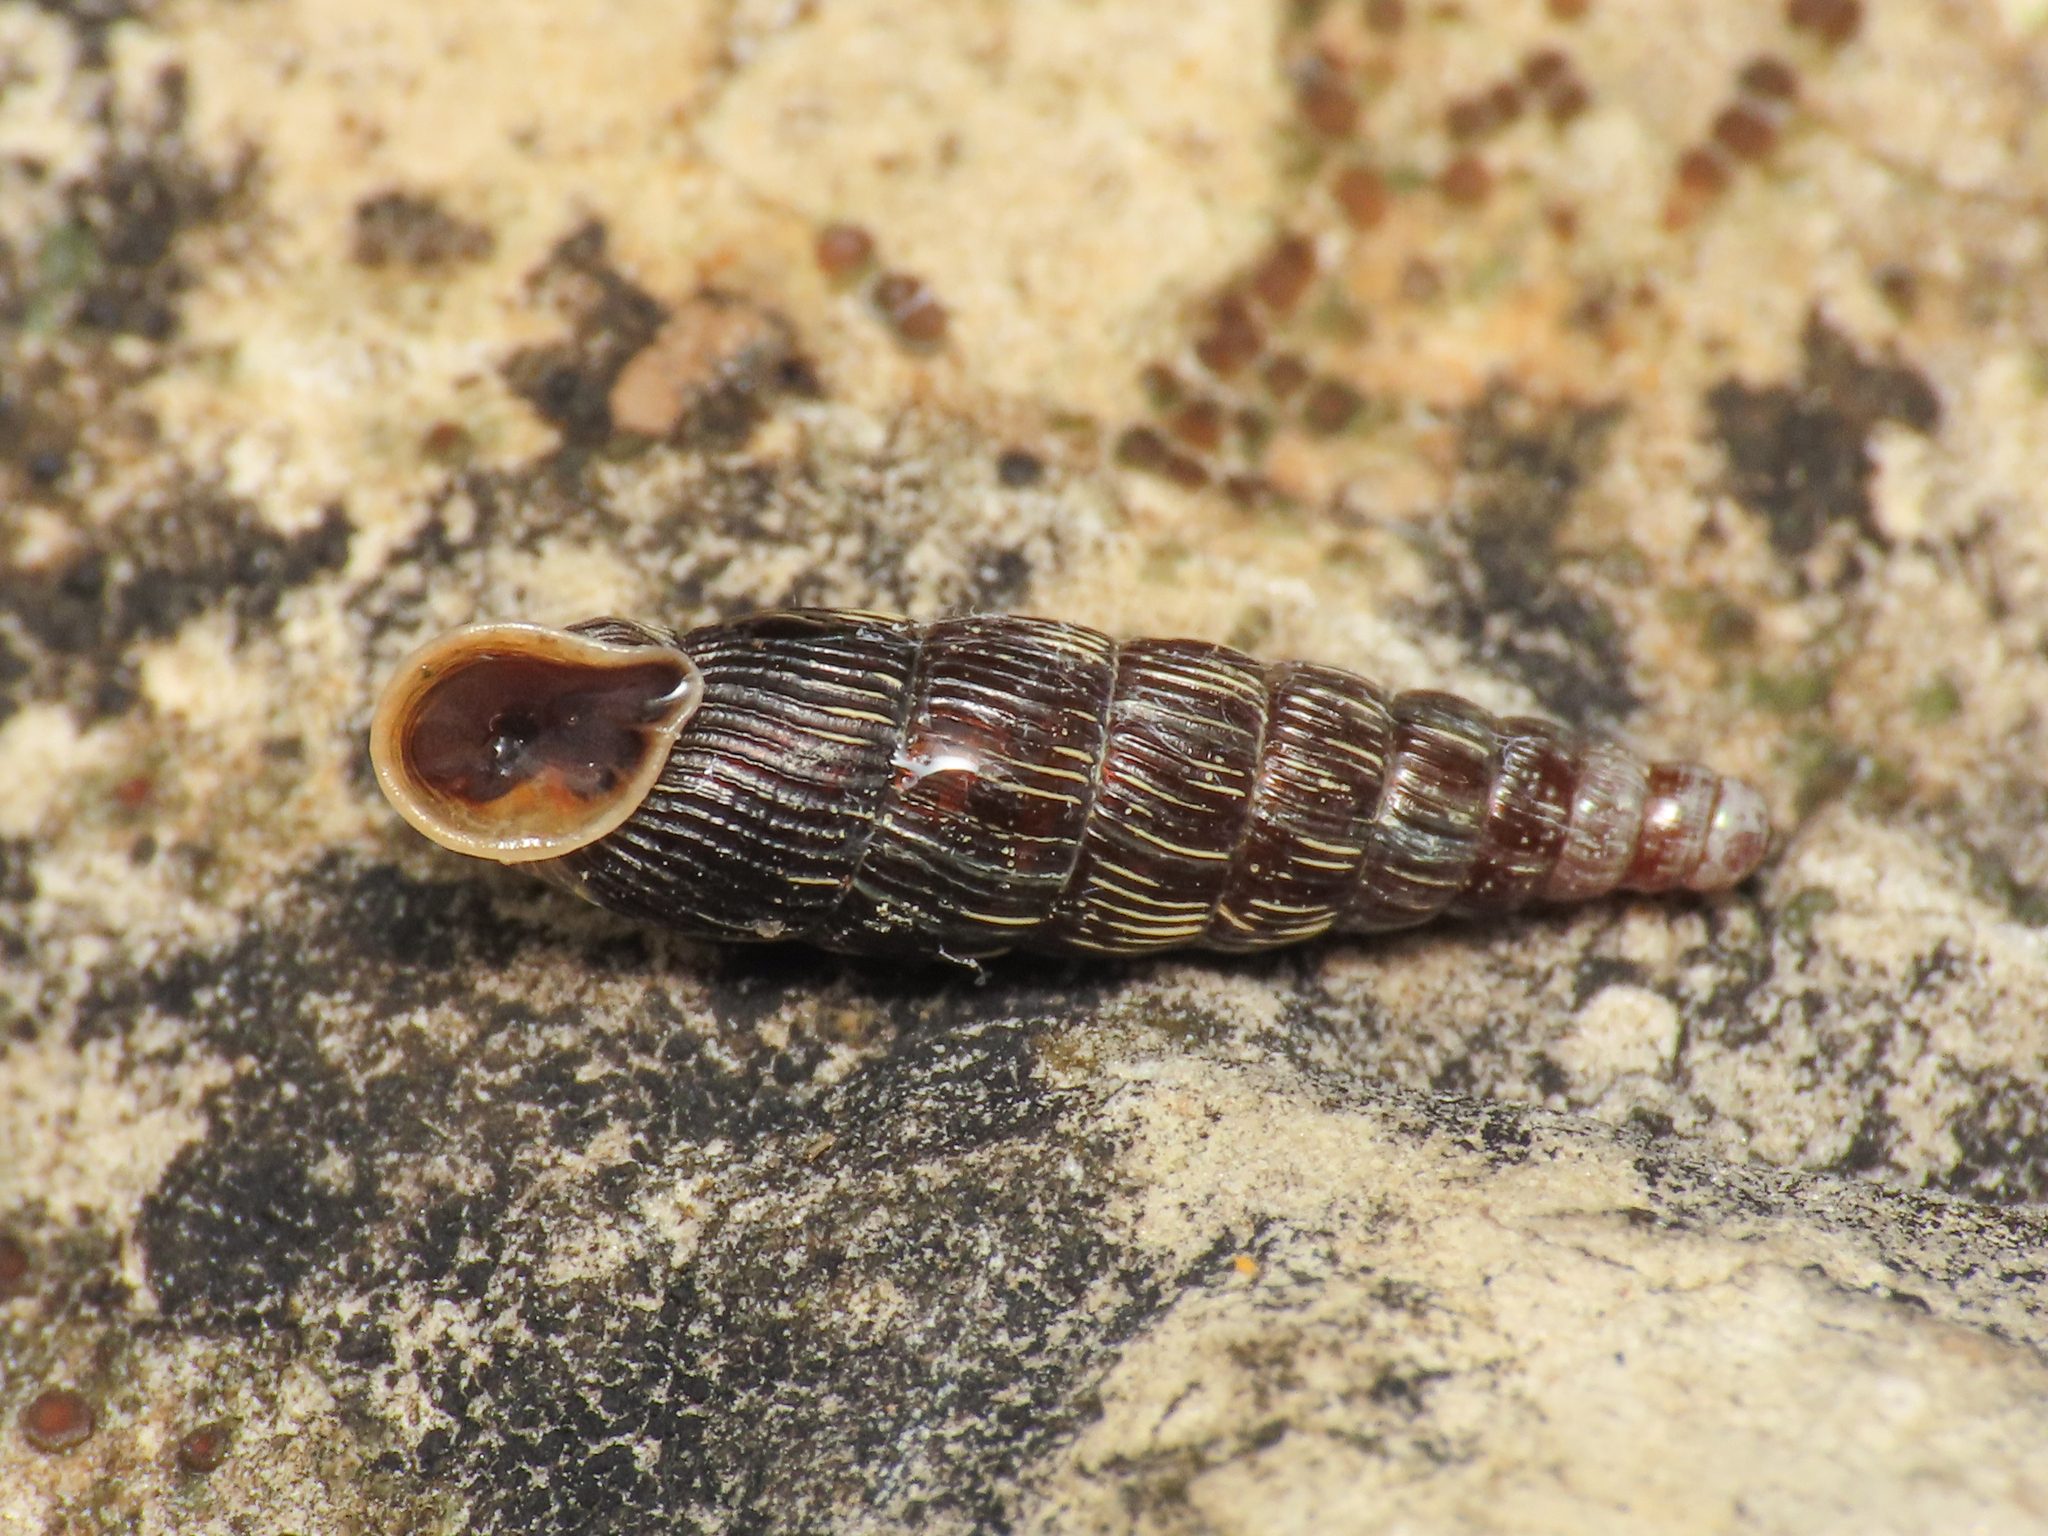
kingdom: Animalia
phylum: Mollusca
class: Gastropoda
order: Stylommatophora
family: Clausiliidae
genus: Clausilia
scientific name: Clausilia cruciata
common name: Sharp-ribbed door snail
